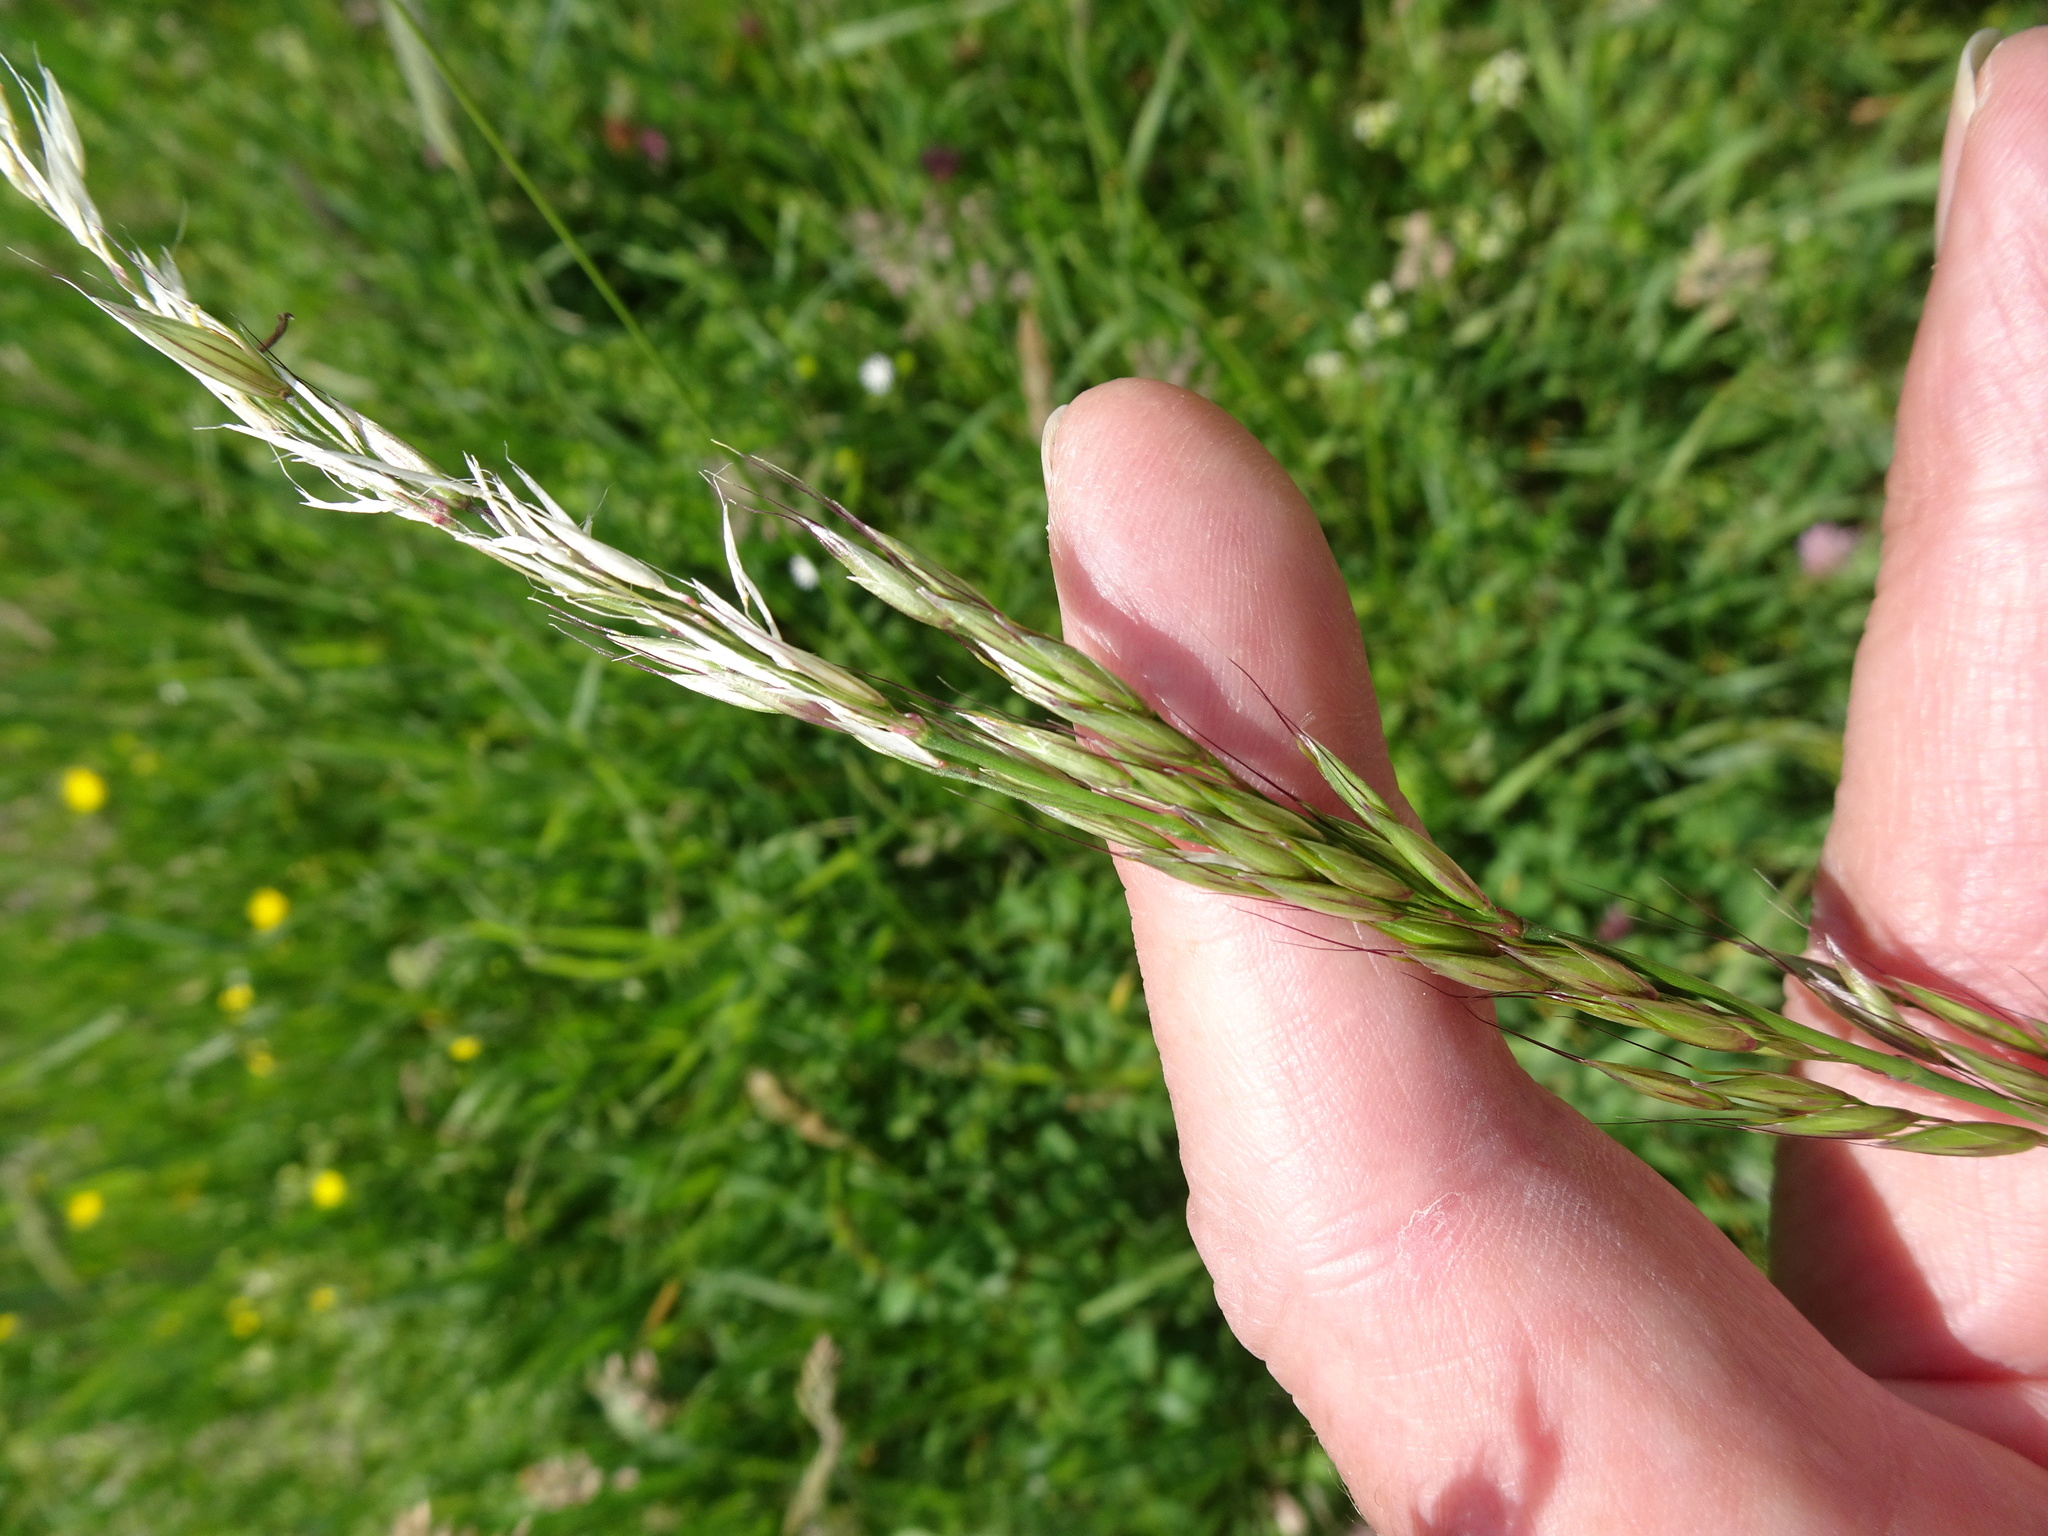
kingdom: Plantae
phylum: Tracheophyta
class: Liliopsida
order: Poales
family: Poaceae
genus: Arrhenatherum
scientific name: Arrhenatherum elatius
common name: Tall oatgrass
